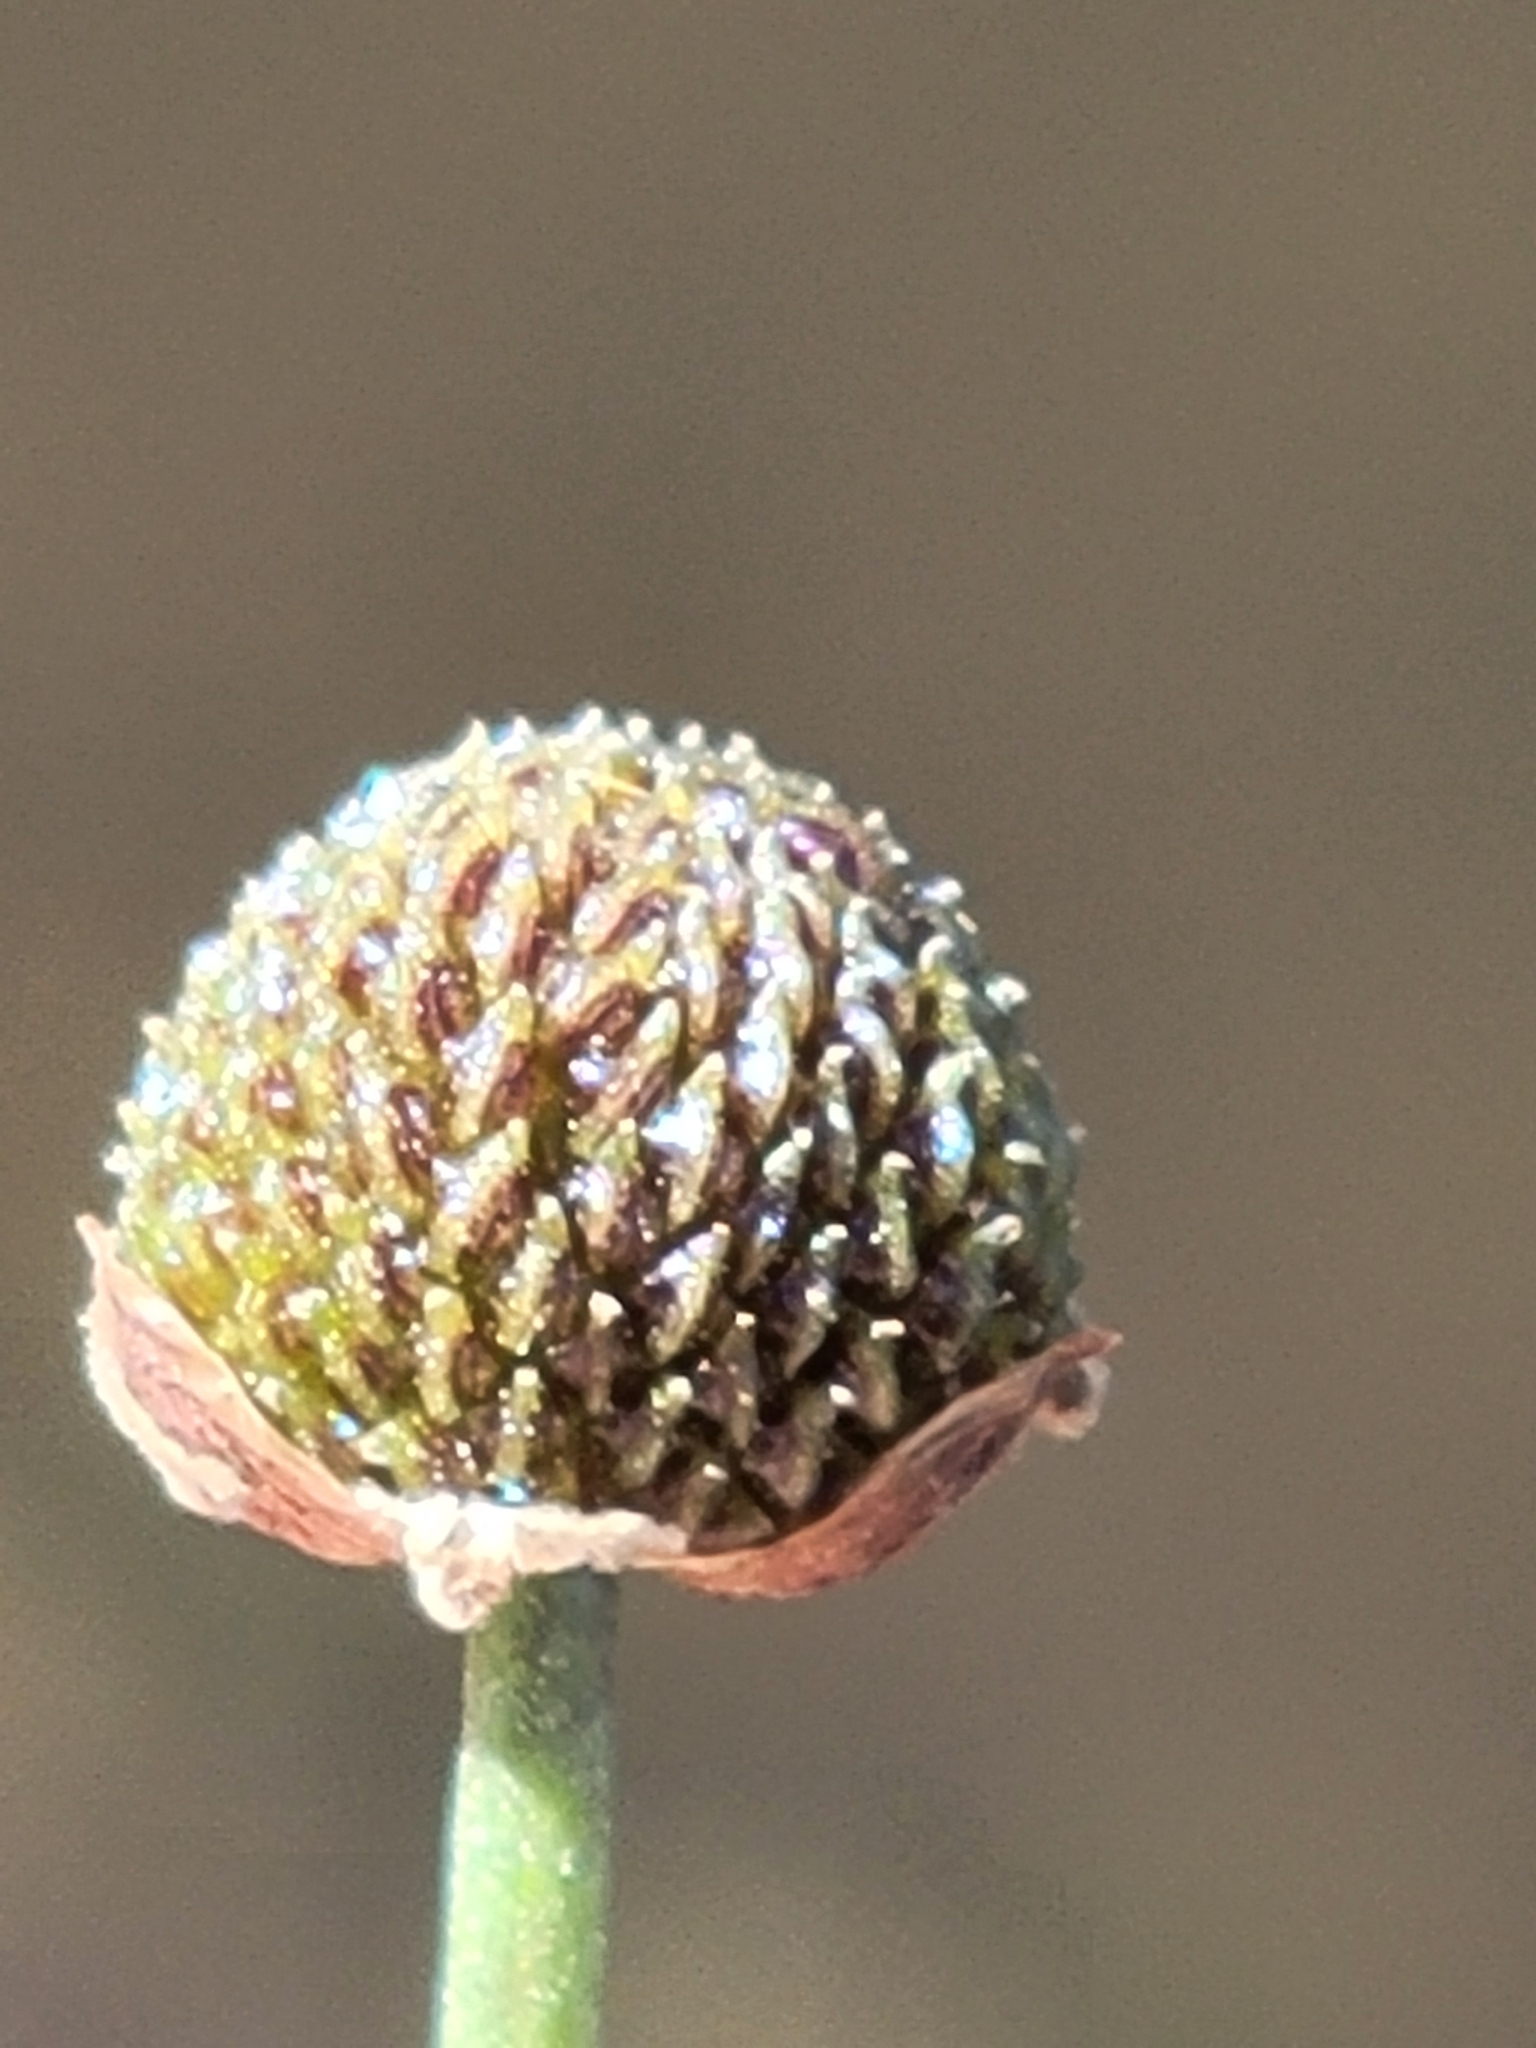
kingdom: Plantae
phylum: Tracheophyta
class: Liliopsida
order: Alismatales
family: Alismataceae
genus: Sagittaria
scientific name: Sagittaria graminea
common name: Grass-leaved arrowhead
